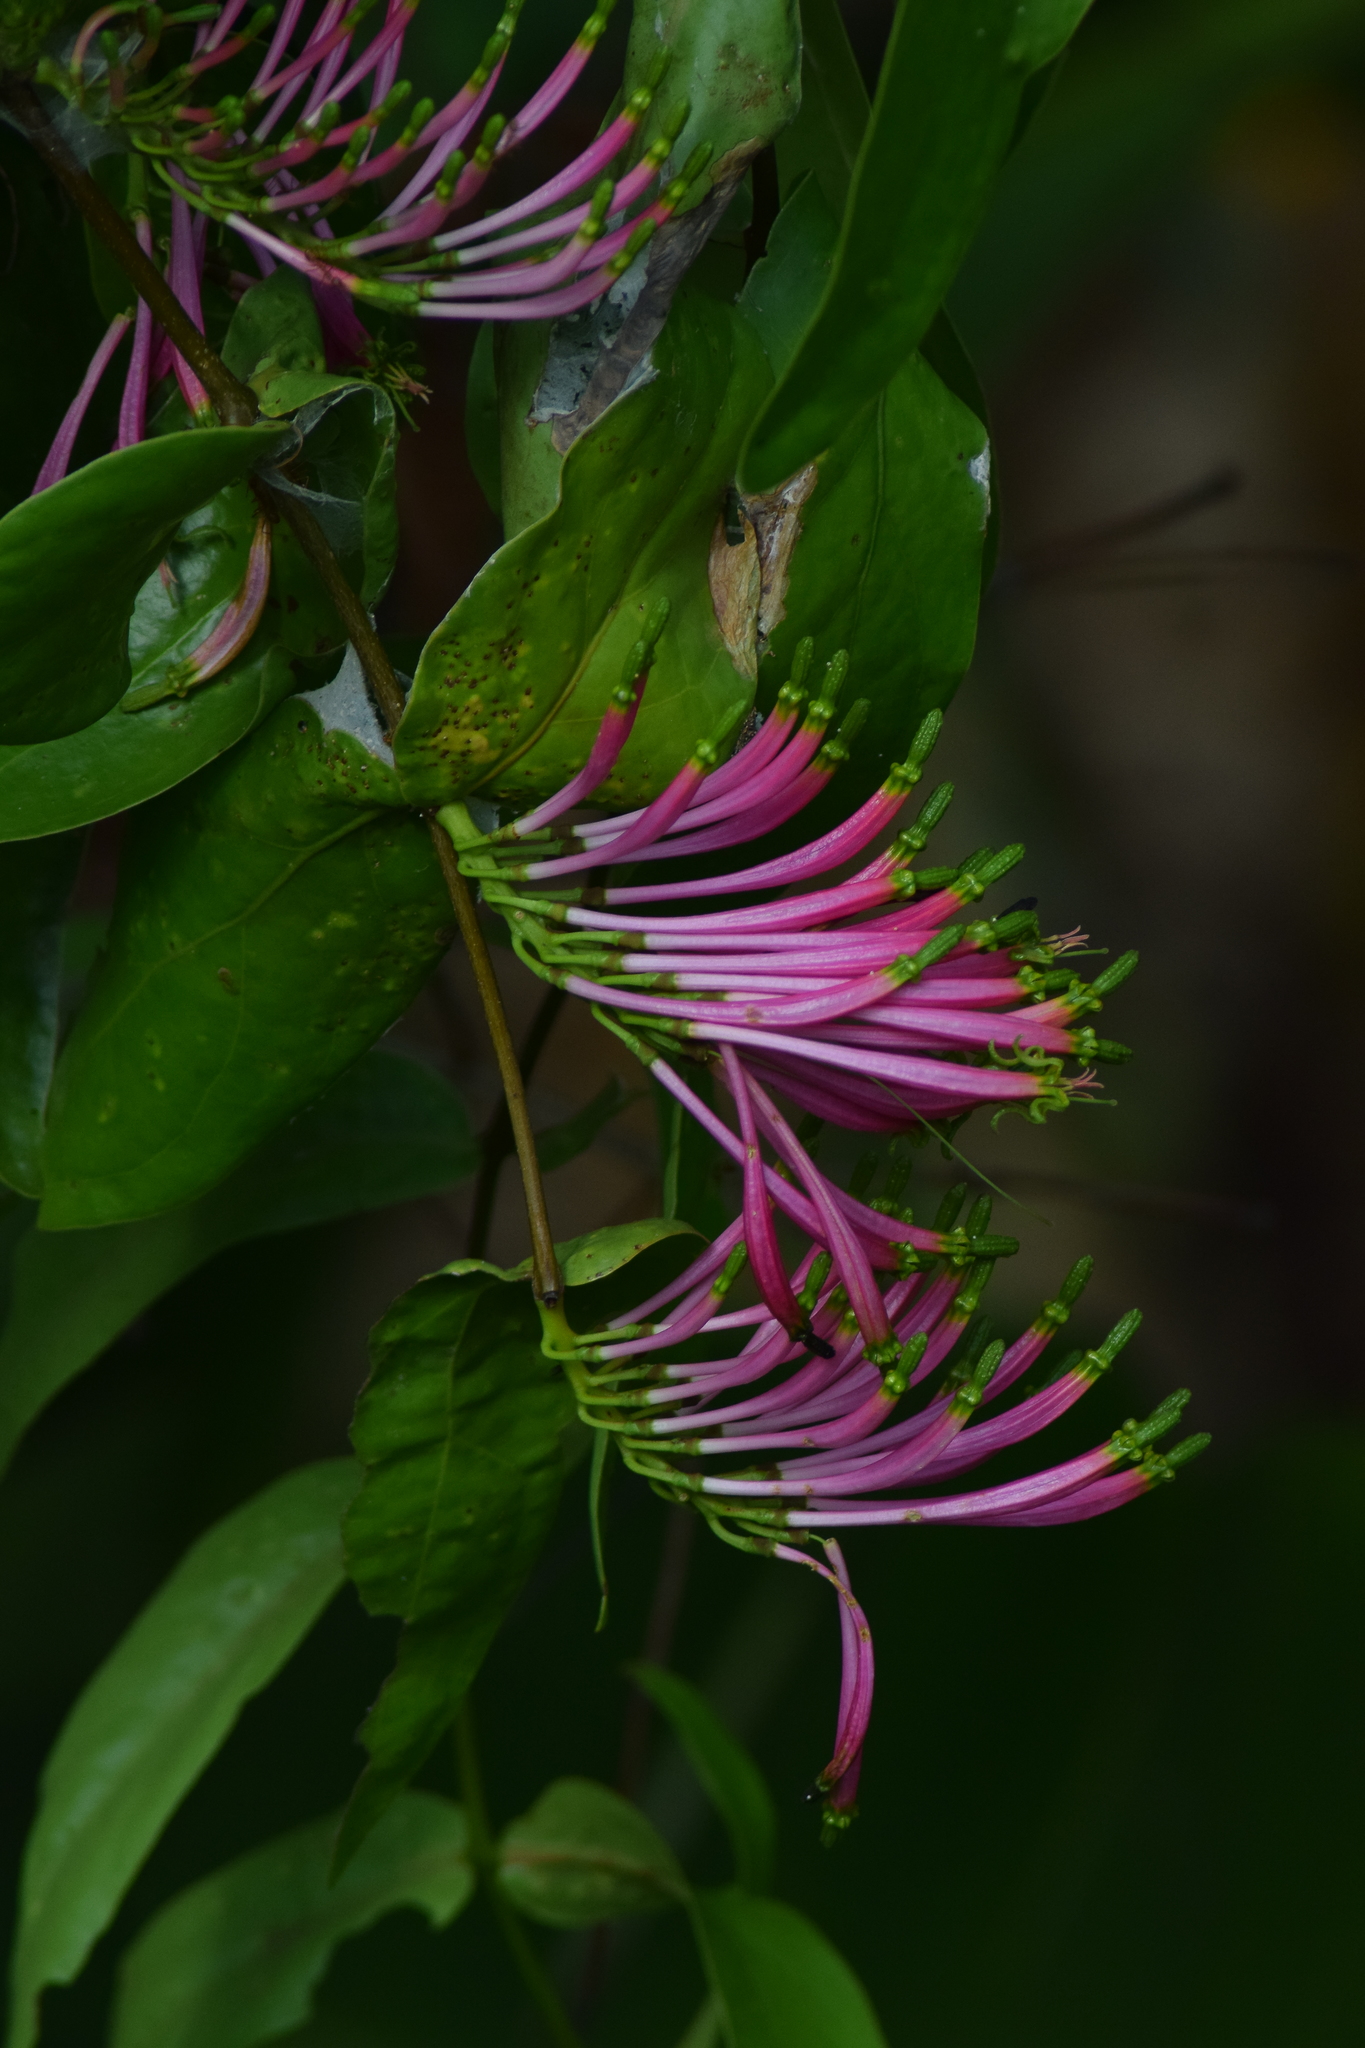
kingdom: Plantae
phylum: Tracheophyta
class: Magnoliopsida
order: Santalales
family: Loranthaceae
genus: Dendrophthoe
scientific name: Dendrophthoe falcata
